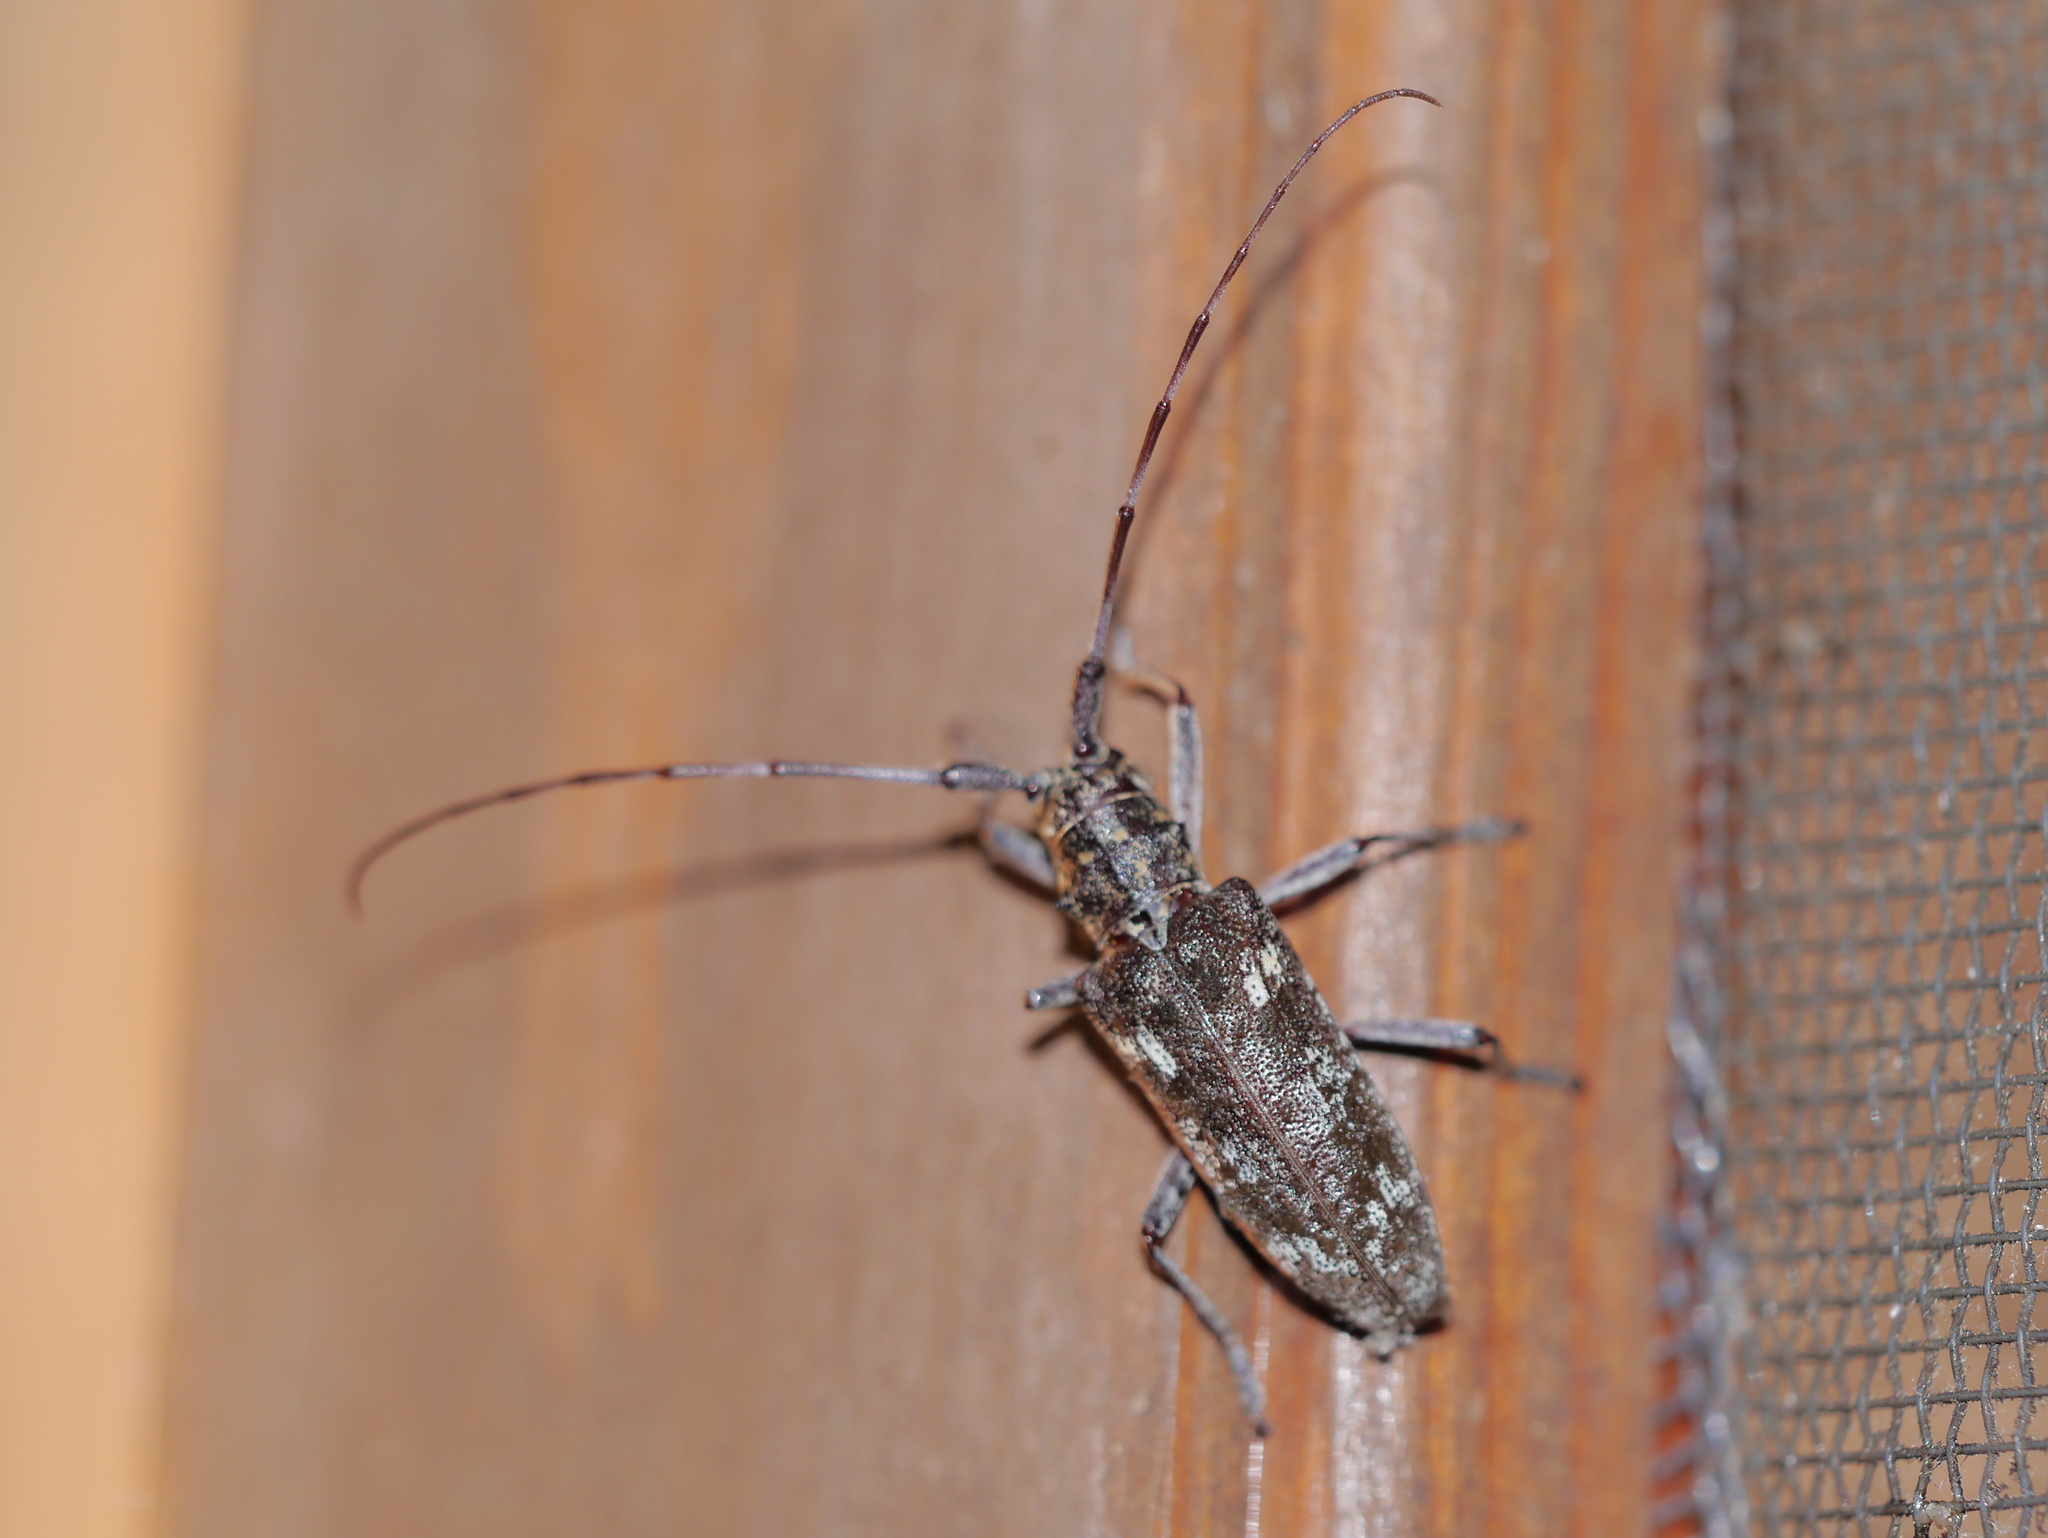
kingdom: Animalia
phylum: Arthropoda
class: Insecta
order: Coleoptera
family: Cerambycidae
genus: Monochamus
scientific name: Monochamus carolinensis
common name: Carolina pine sawyer
